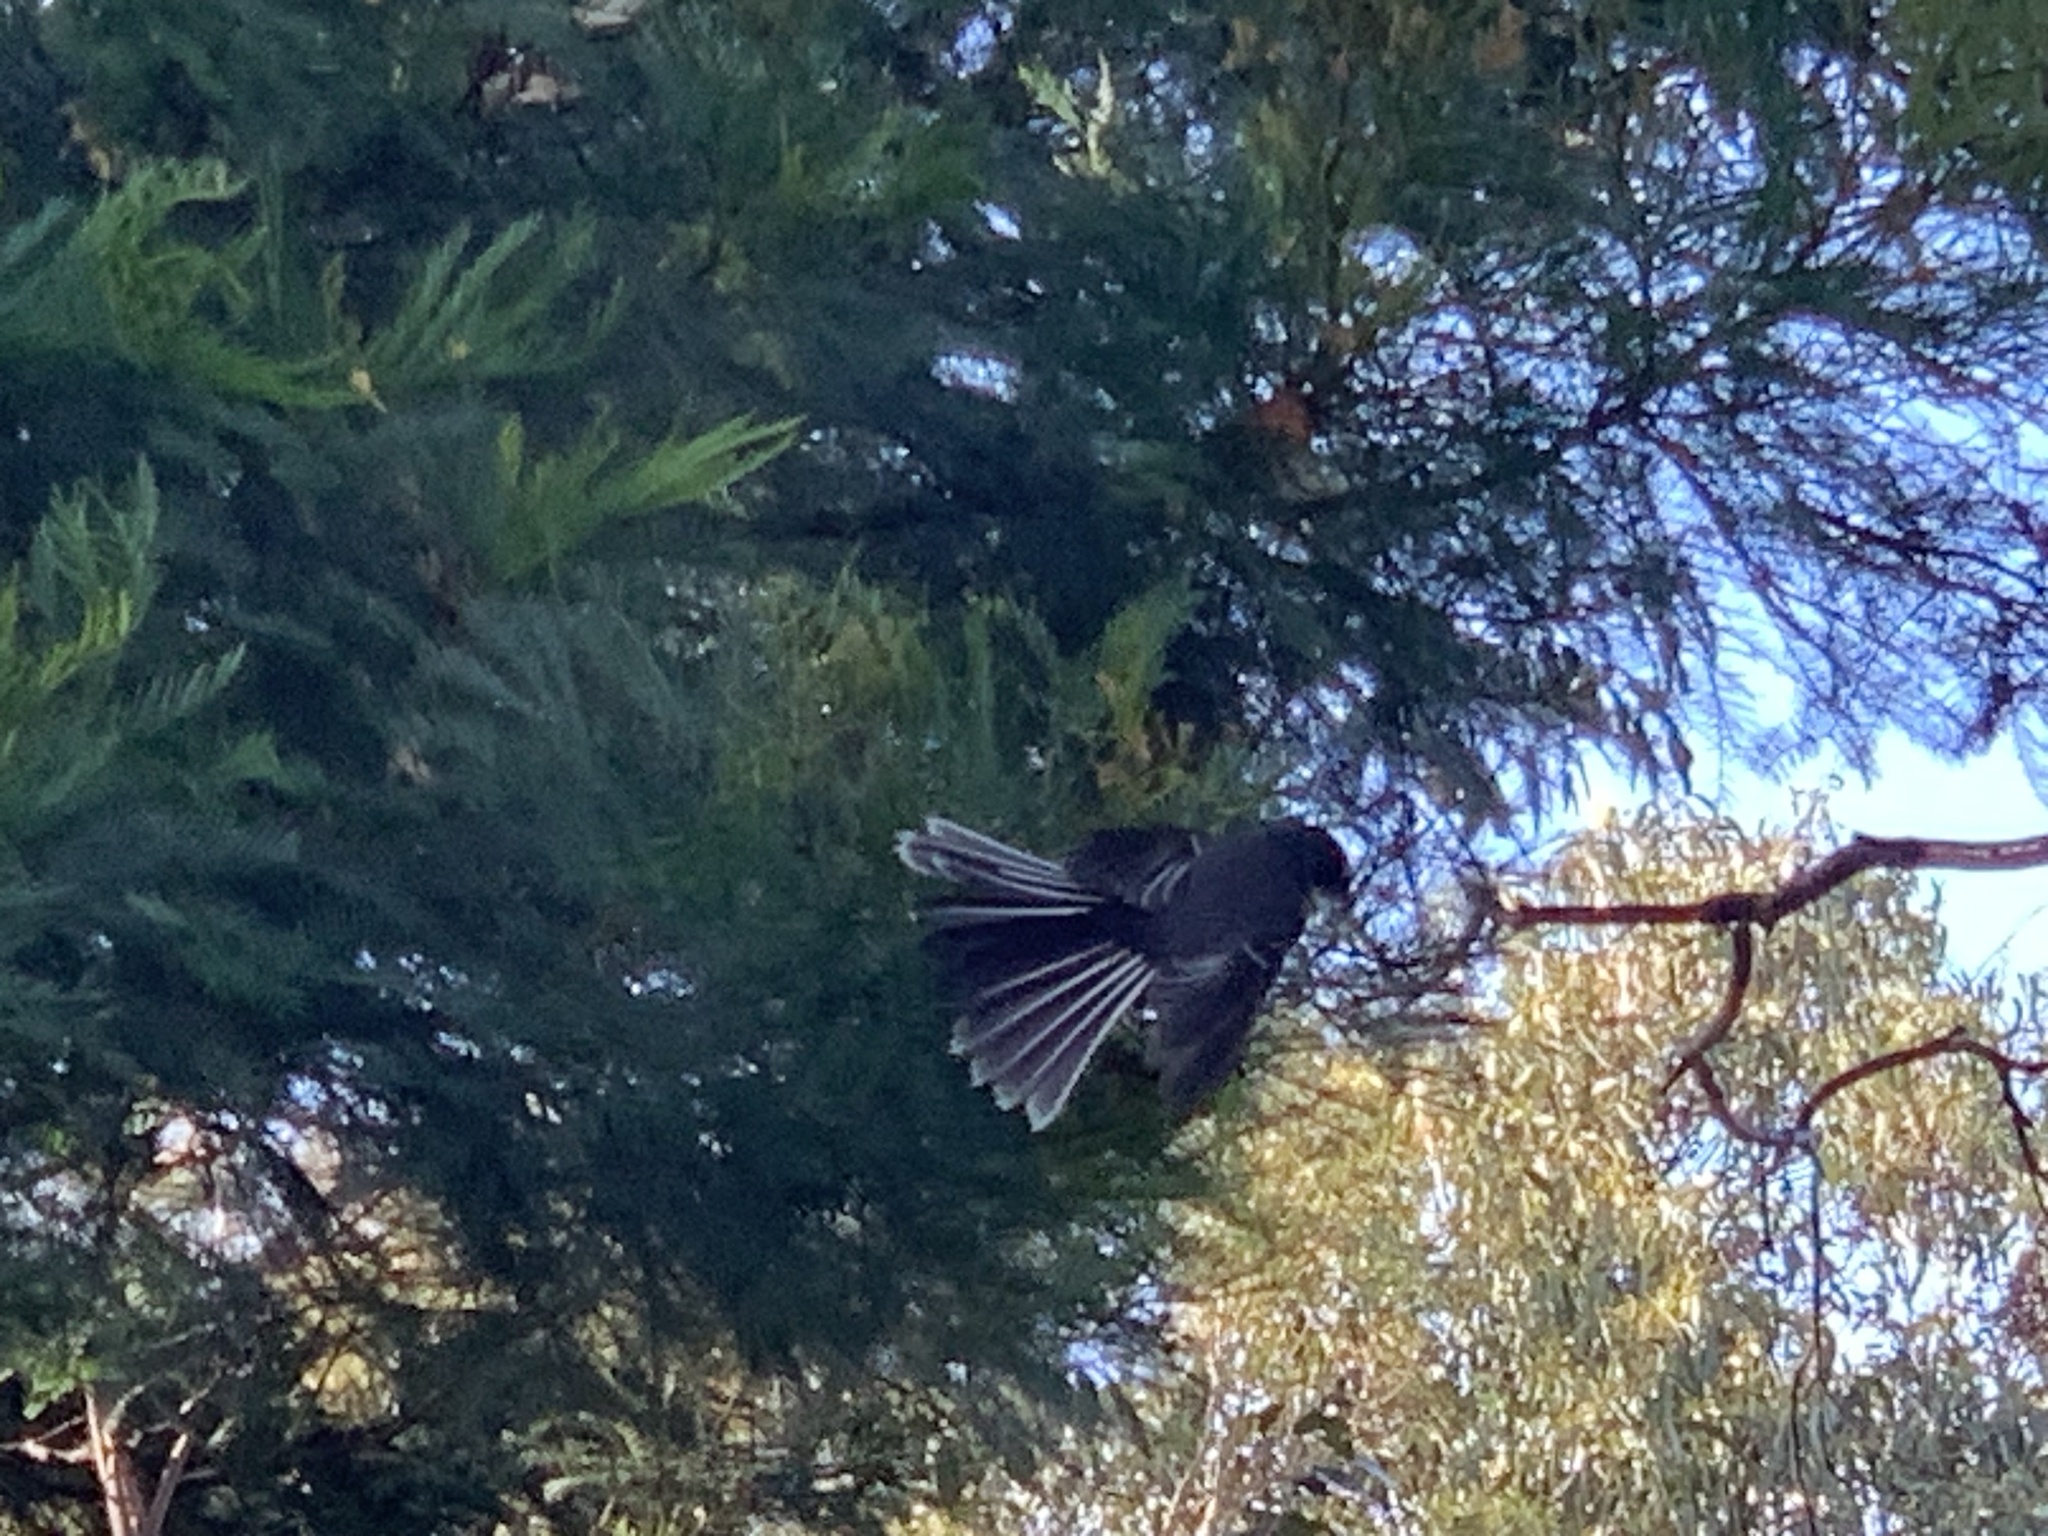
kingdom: Animalia
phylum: Chordata
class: Aves
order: Passeriformes
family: Rhipiduridae
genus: Rhipidura
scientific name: Rhipidura albiscapa
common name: Grey fantail
